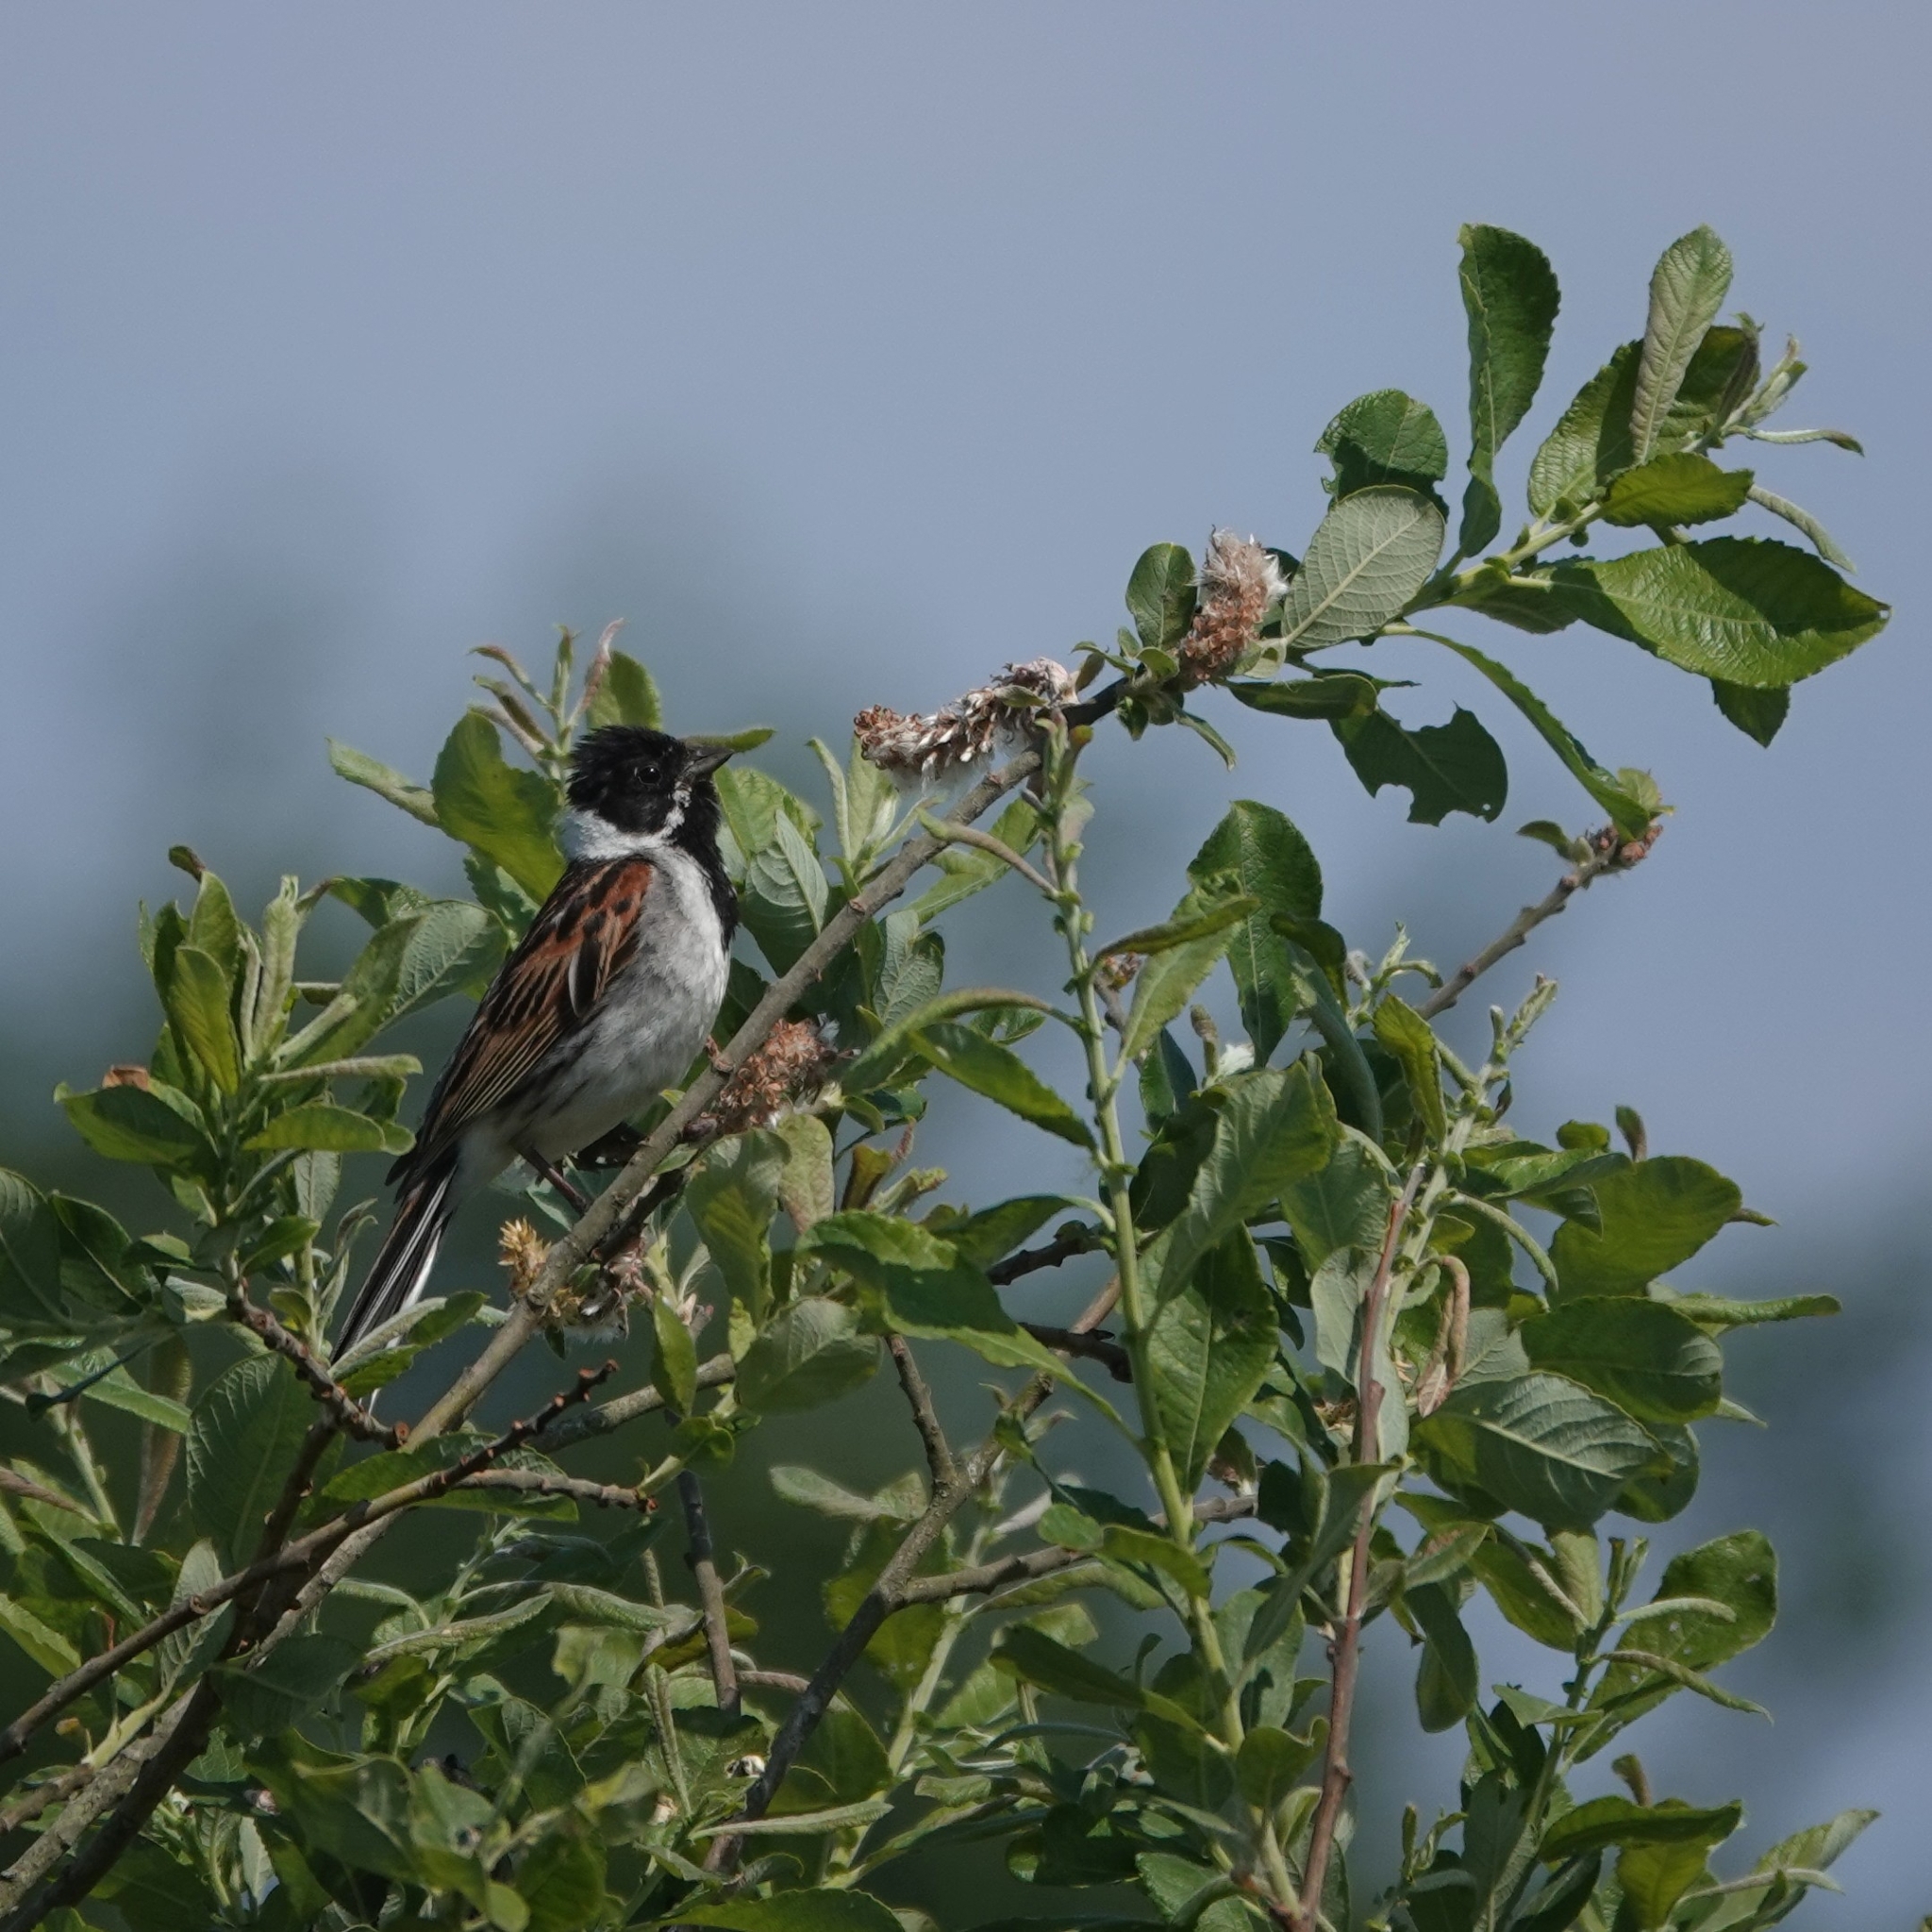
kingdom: Animalia
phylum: Chordata
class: Aves
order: Passeriformes
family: Emberizidae
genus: Emberiza
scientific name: Emberiza schoeniclus
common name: Reed bunting
